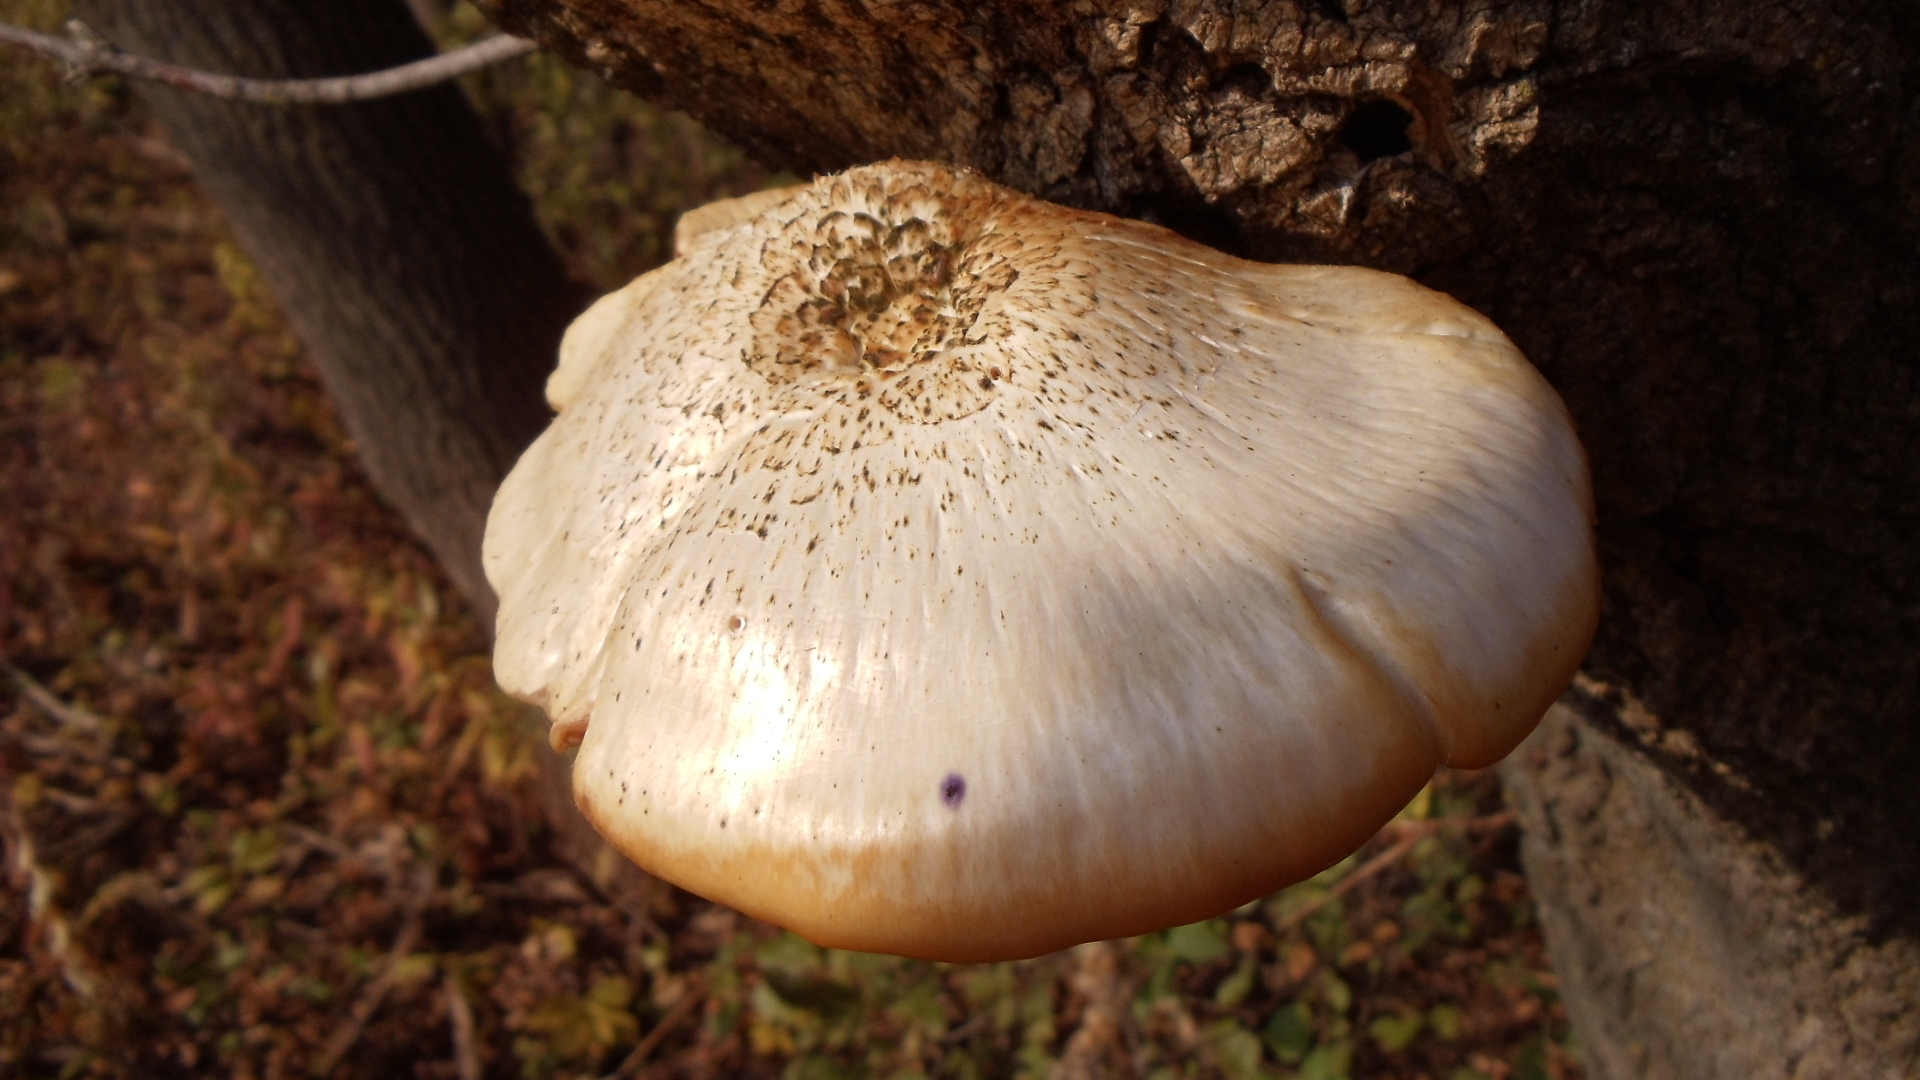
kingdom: Fungi
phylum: Basidiomycota
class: Agaricomycetes
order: Agaricales
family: Lyophyllaceae
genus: Hypsizygus
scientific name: Hypsizygus ulmarius
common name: Elm leech
